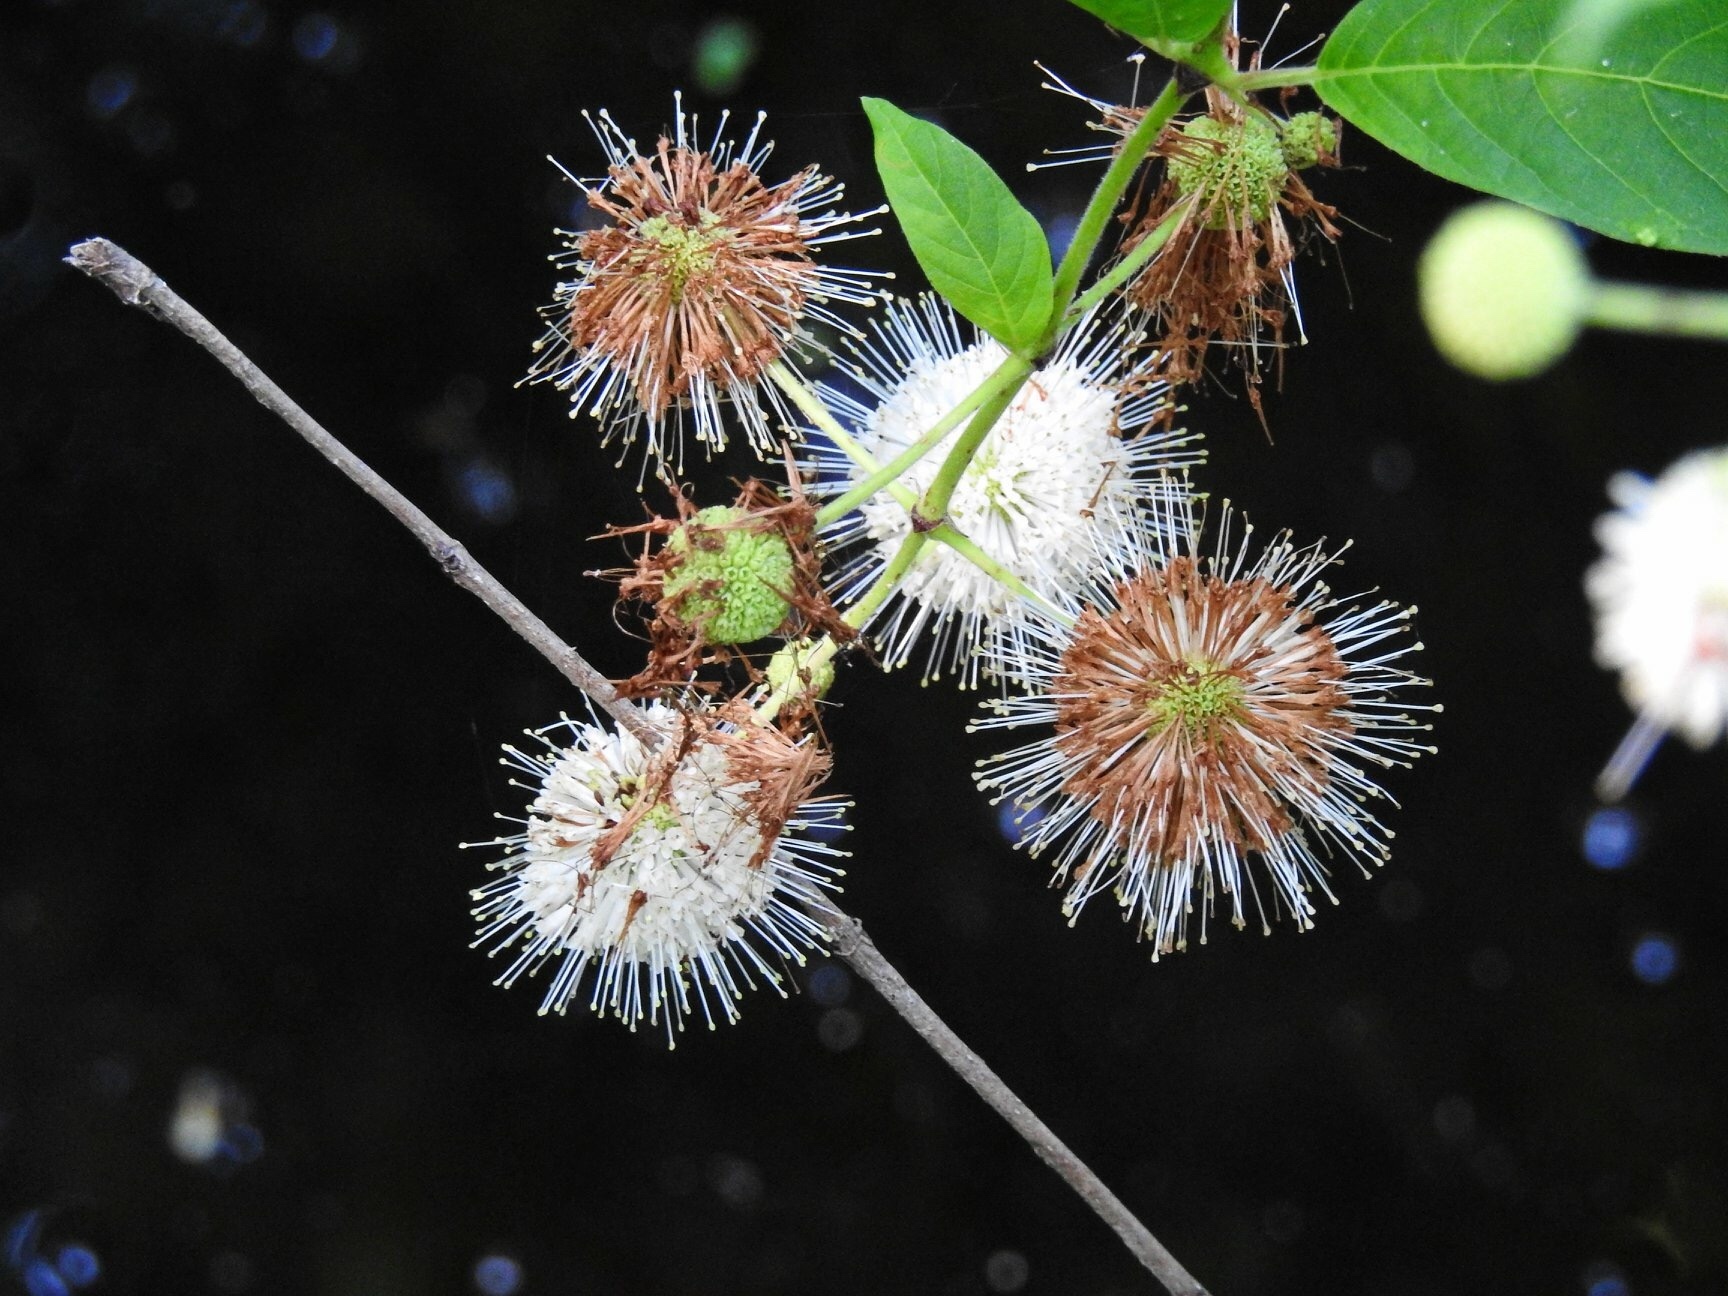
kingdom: Plantae
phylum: Tracheophyta
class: Magnoliopsida
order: Gentianales
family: Rubiaceae
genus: Cephalanthus
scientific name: Cephalanthus occidentalis
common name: Button-willow
